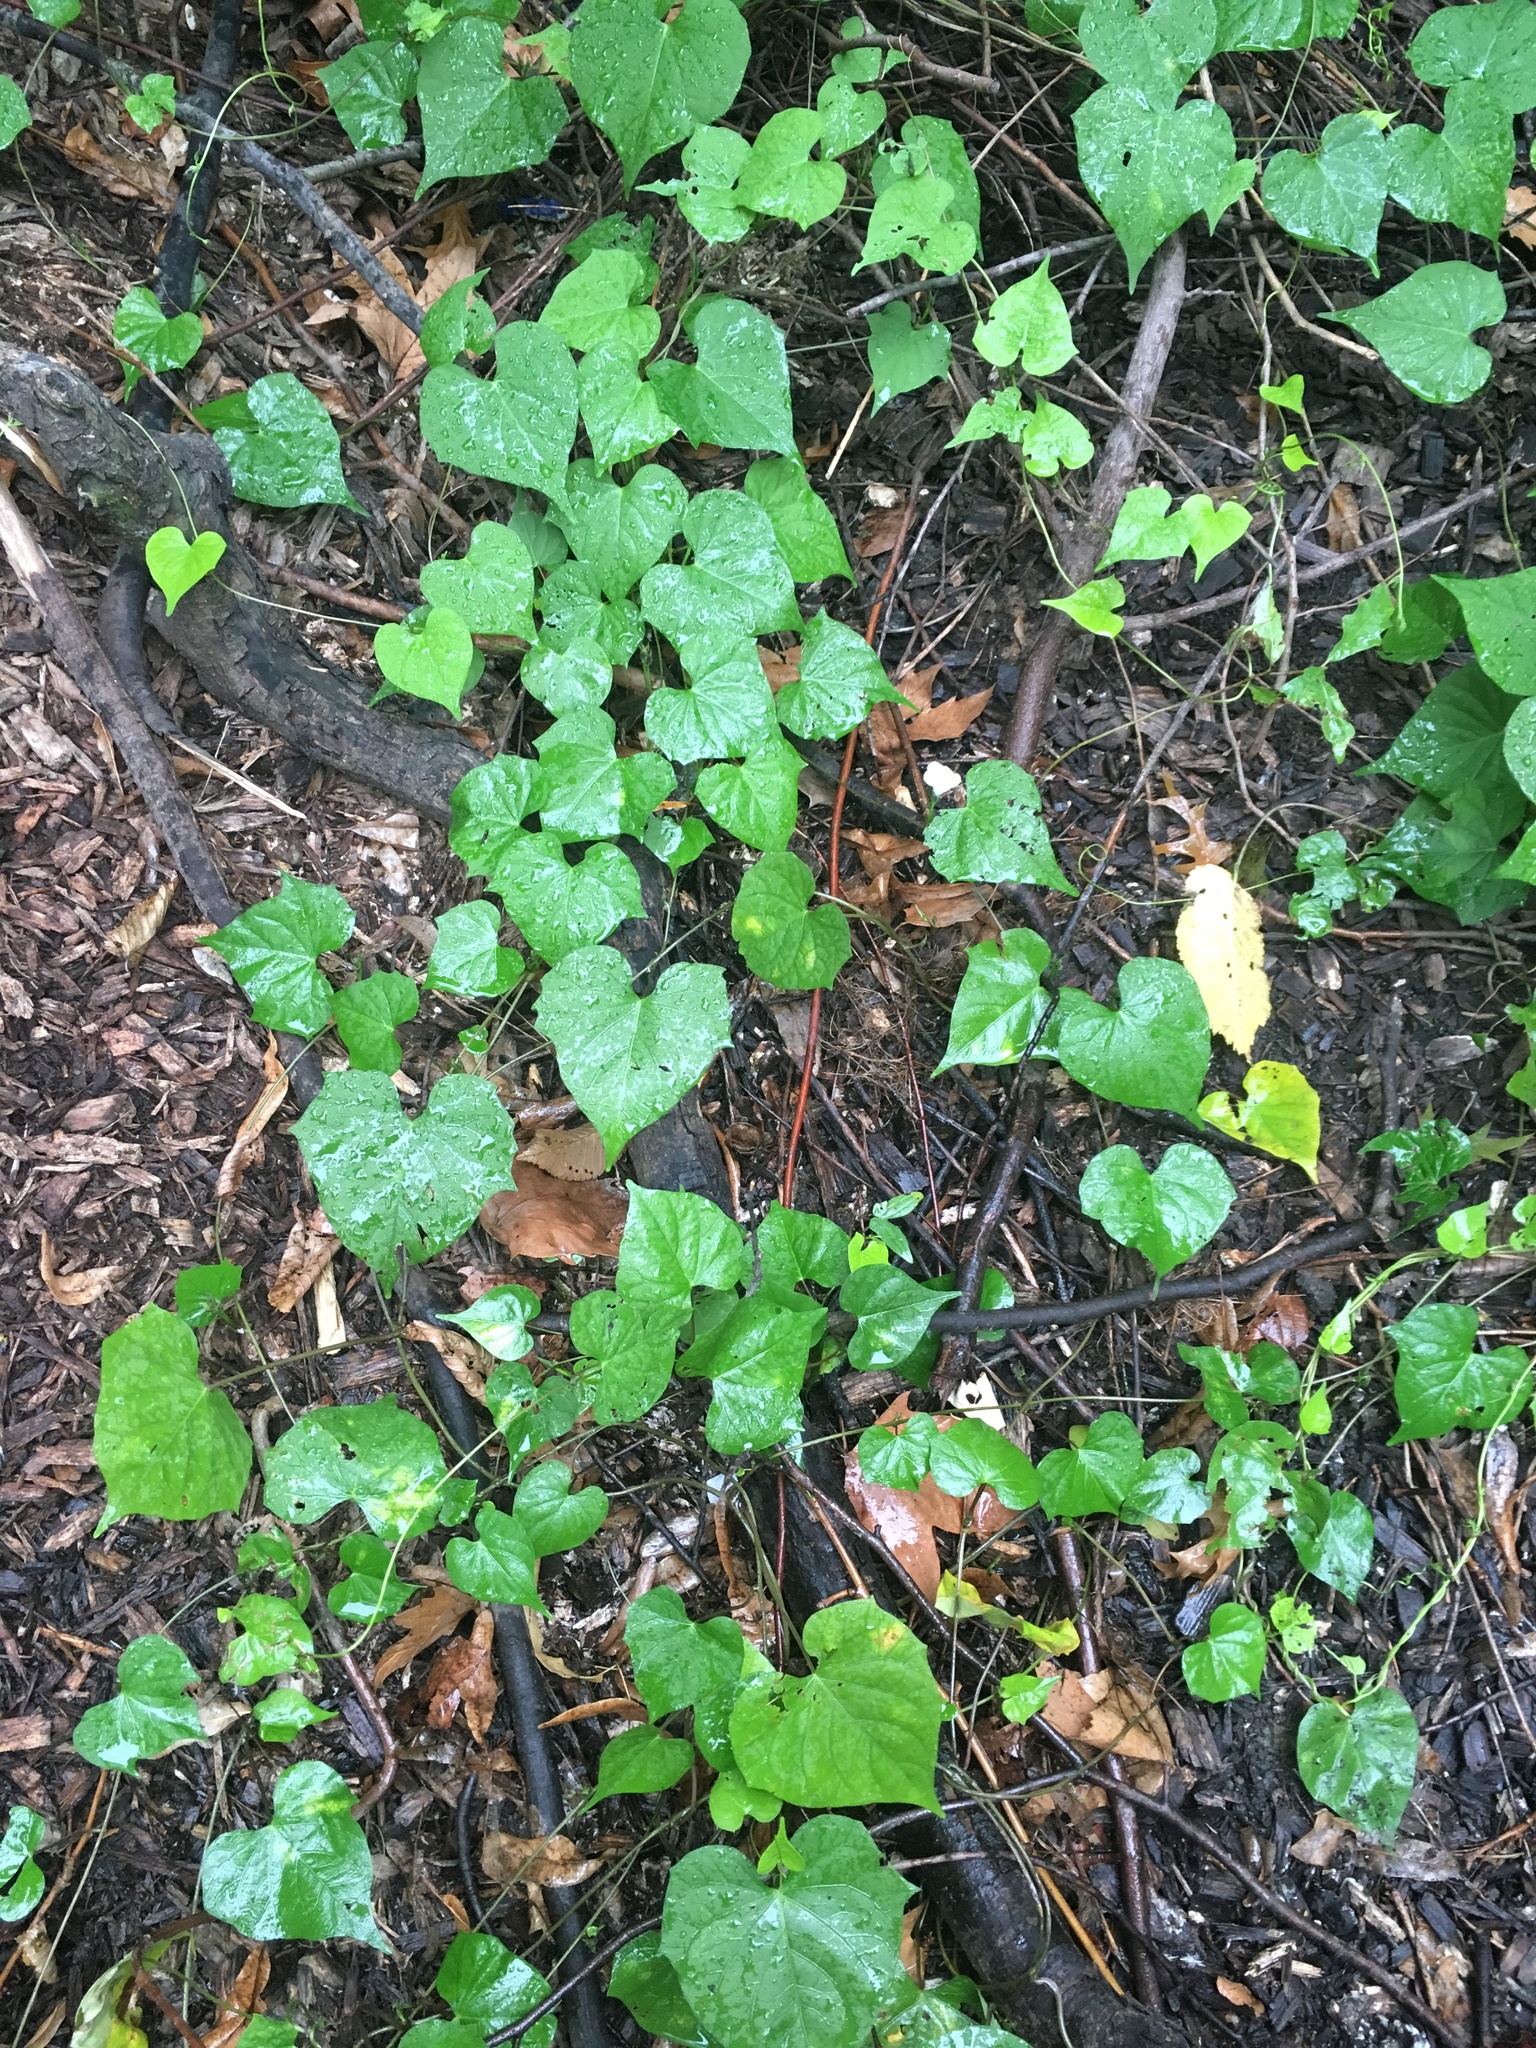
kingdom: Plantae
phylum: Tracheophyta
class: Magnoliopsida
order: Solanales
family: Convolvulaceae
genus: Ipomoea
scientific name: Ipomoea lacunosa
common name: White morning-glory
